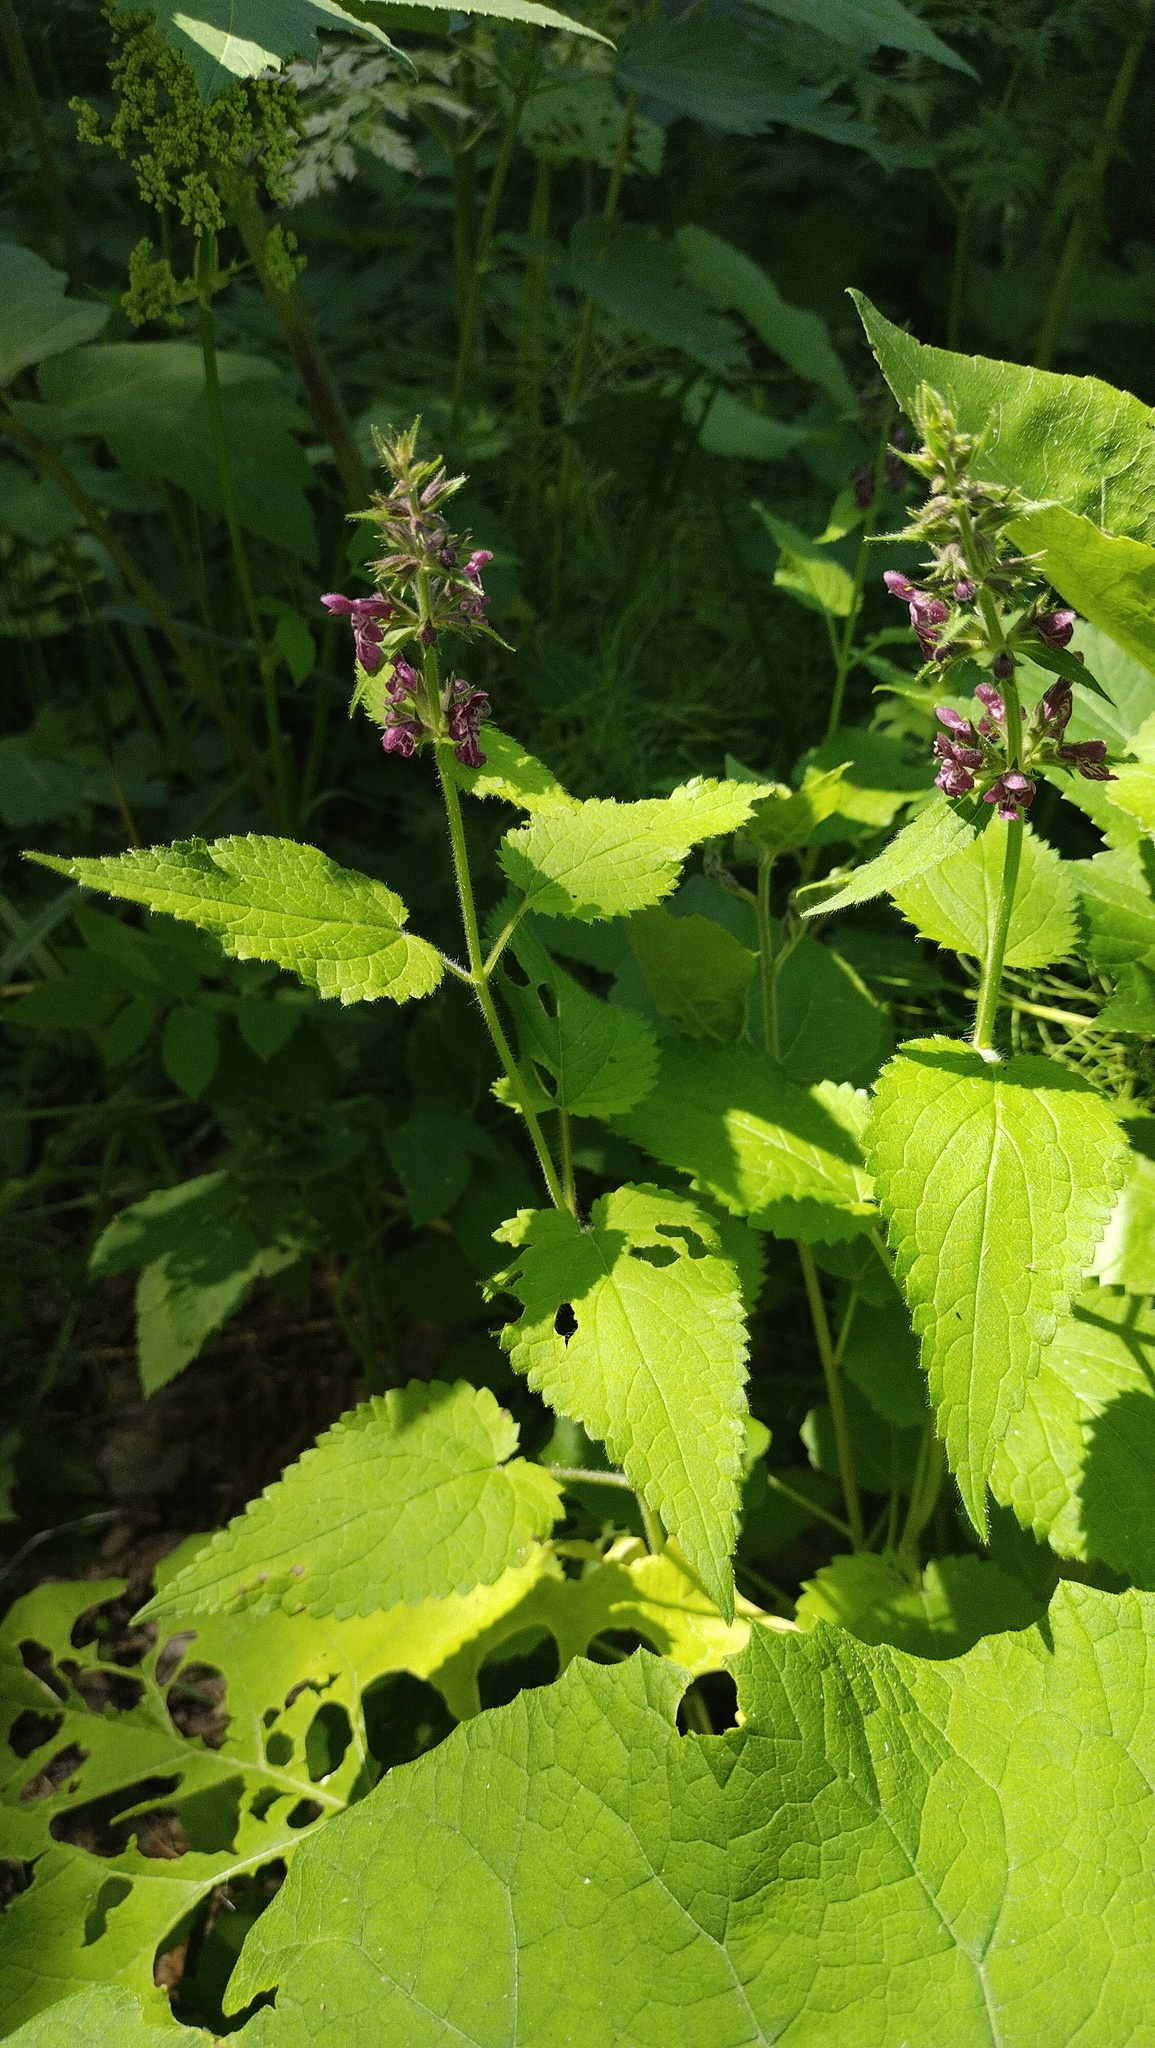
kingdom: Plantae
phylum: Tracheophyta
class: Magnoliopsida
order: Lamiales
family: Lamiaceae
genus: Stachys
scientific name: Stachys sylvatica
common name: Hedge woundwort
